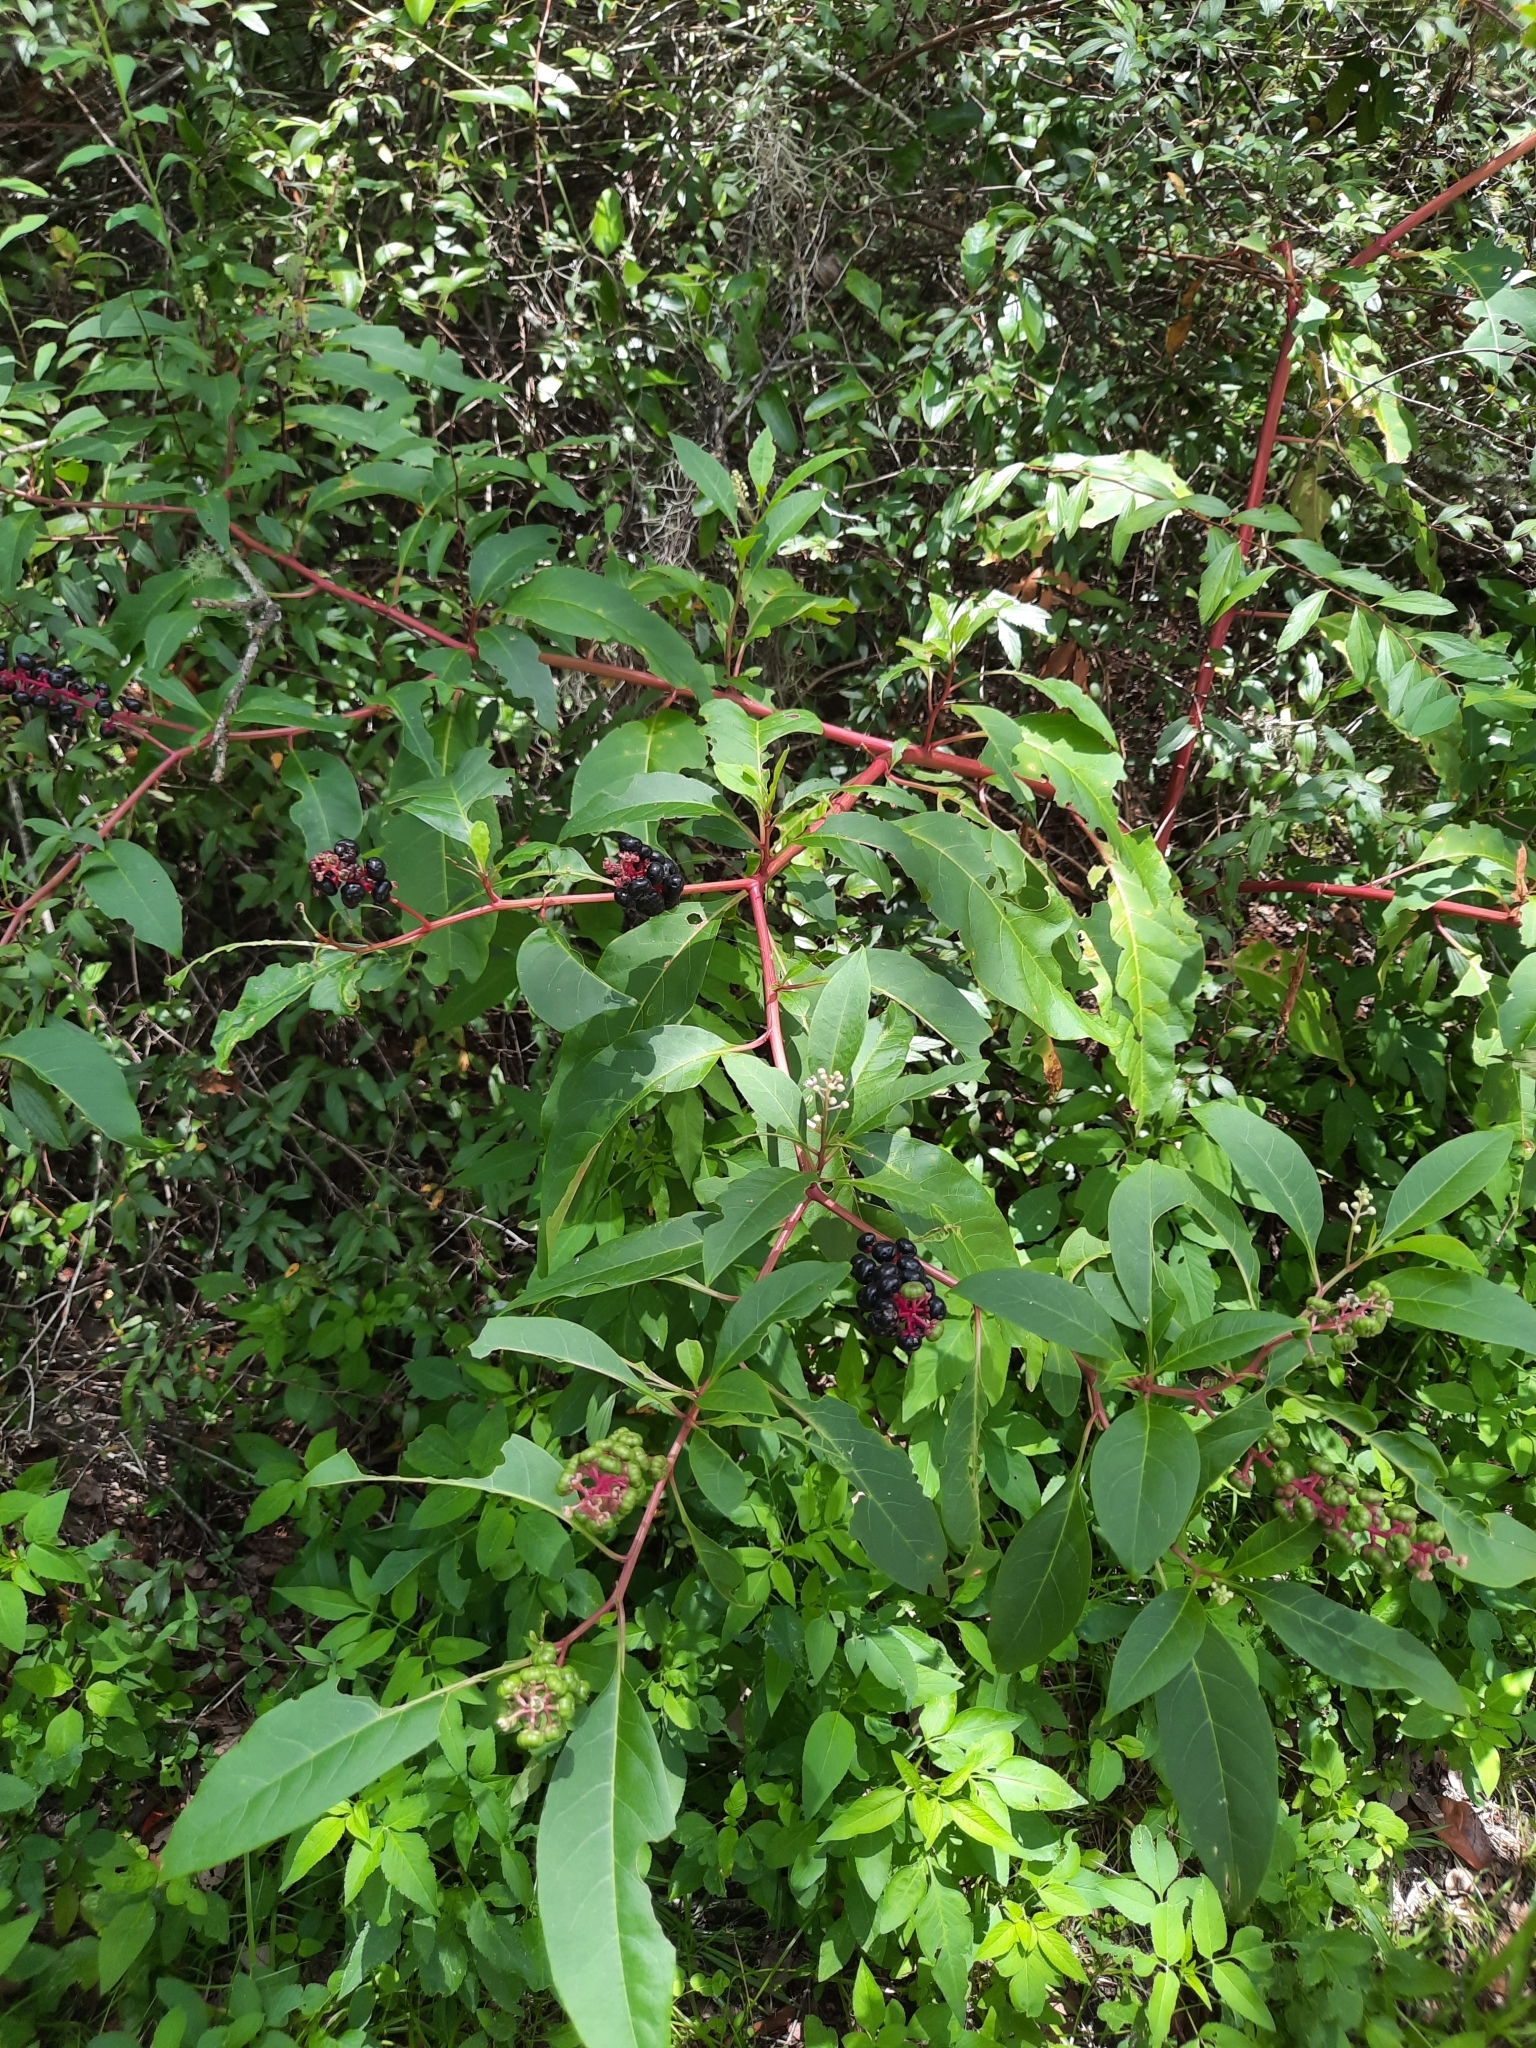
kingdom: Plantae
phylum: Tracheophyta
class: Magnoliopsida
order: Caryophyllales
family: Phytolaccaceae
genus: Phytolacca
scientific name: Phytolacca americana
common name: American pokeweed
